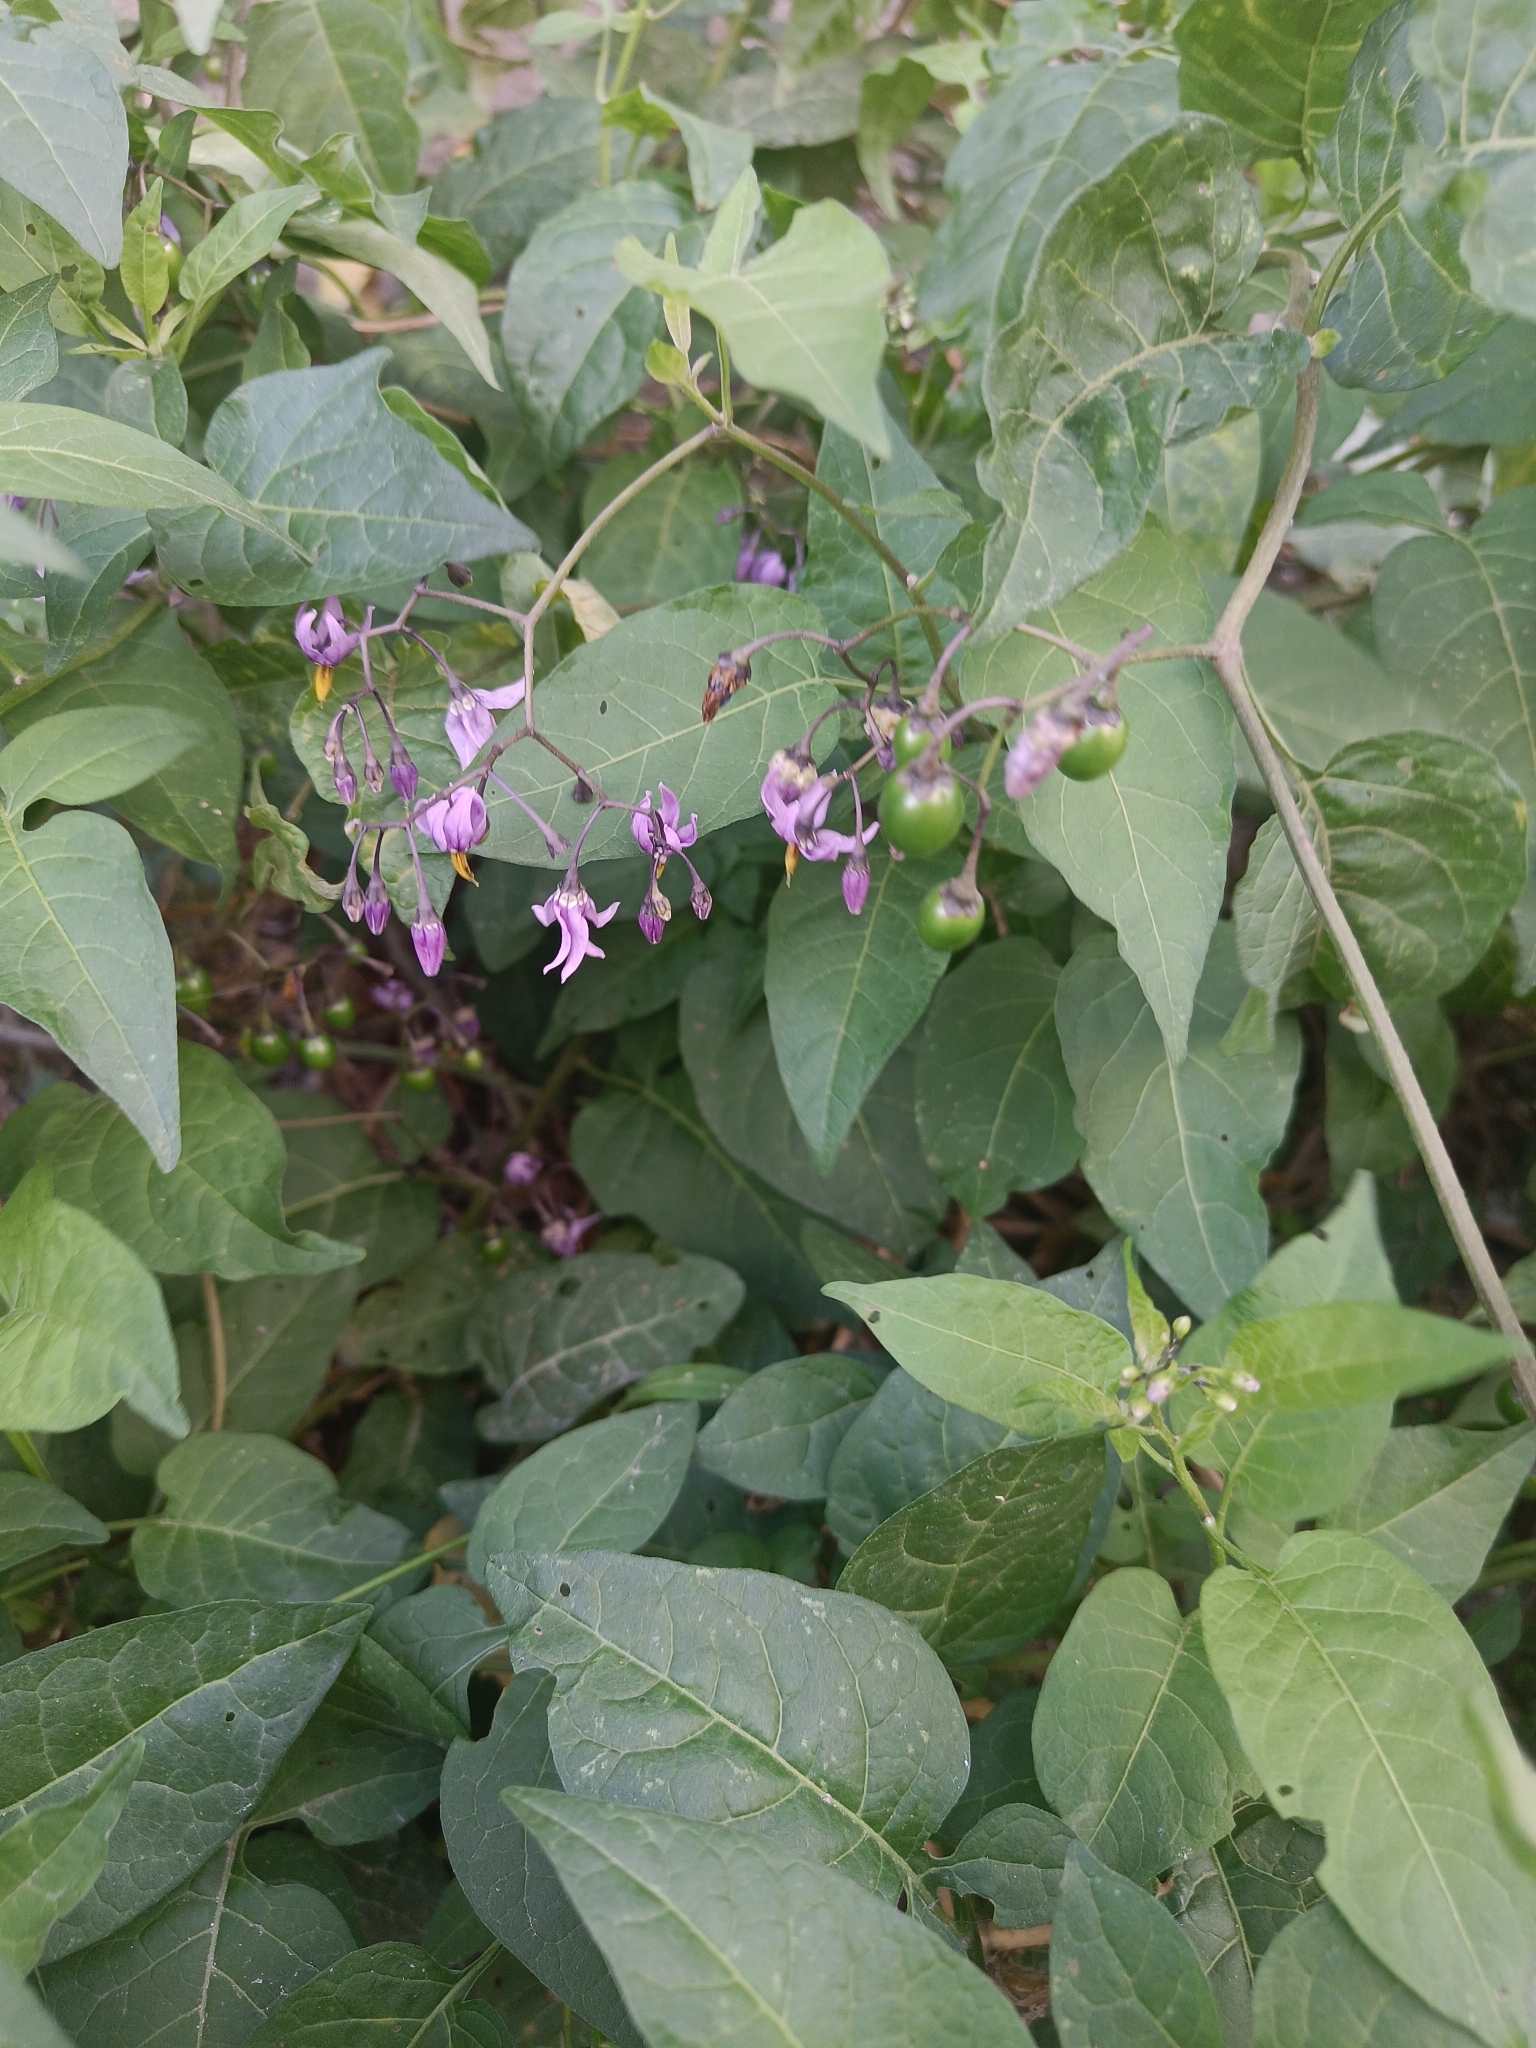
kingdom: Plantae
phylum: Tracheophyta
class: Magnoliopsida
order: Solanales
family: Solanaceae
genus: Solanum
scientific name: Solanum dulcamara
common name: Climbing nightshade
